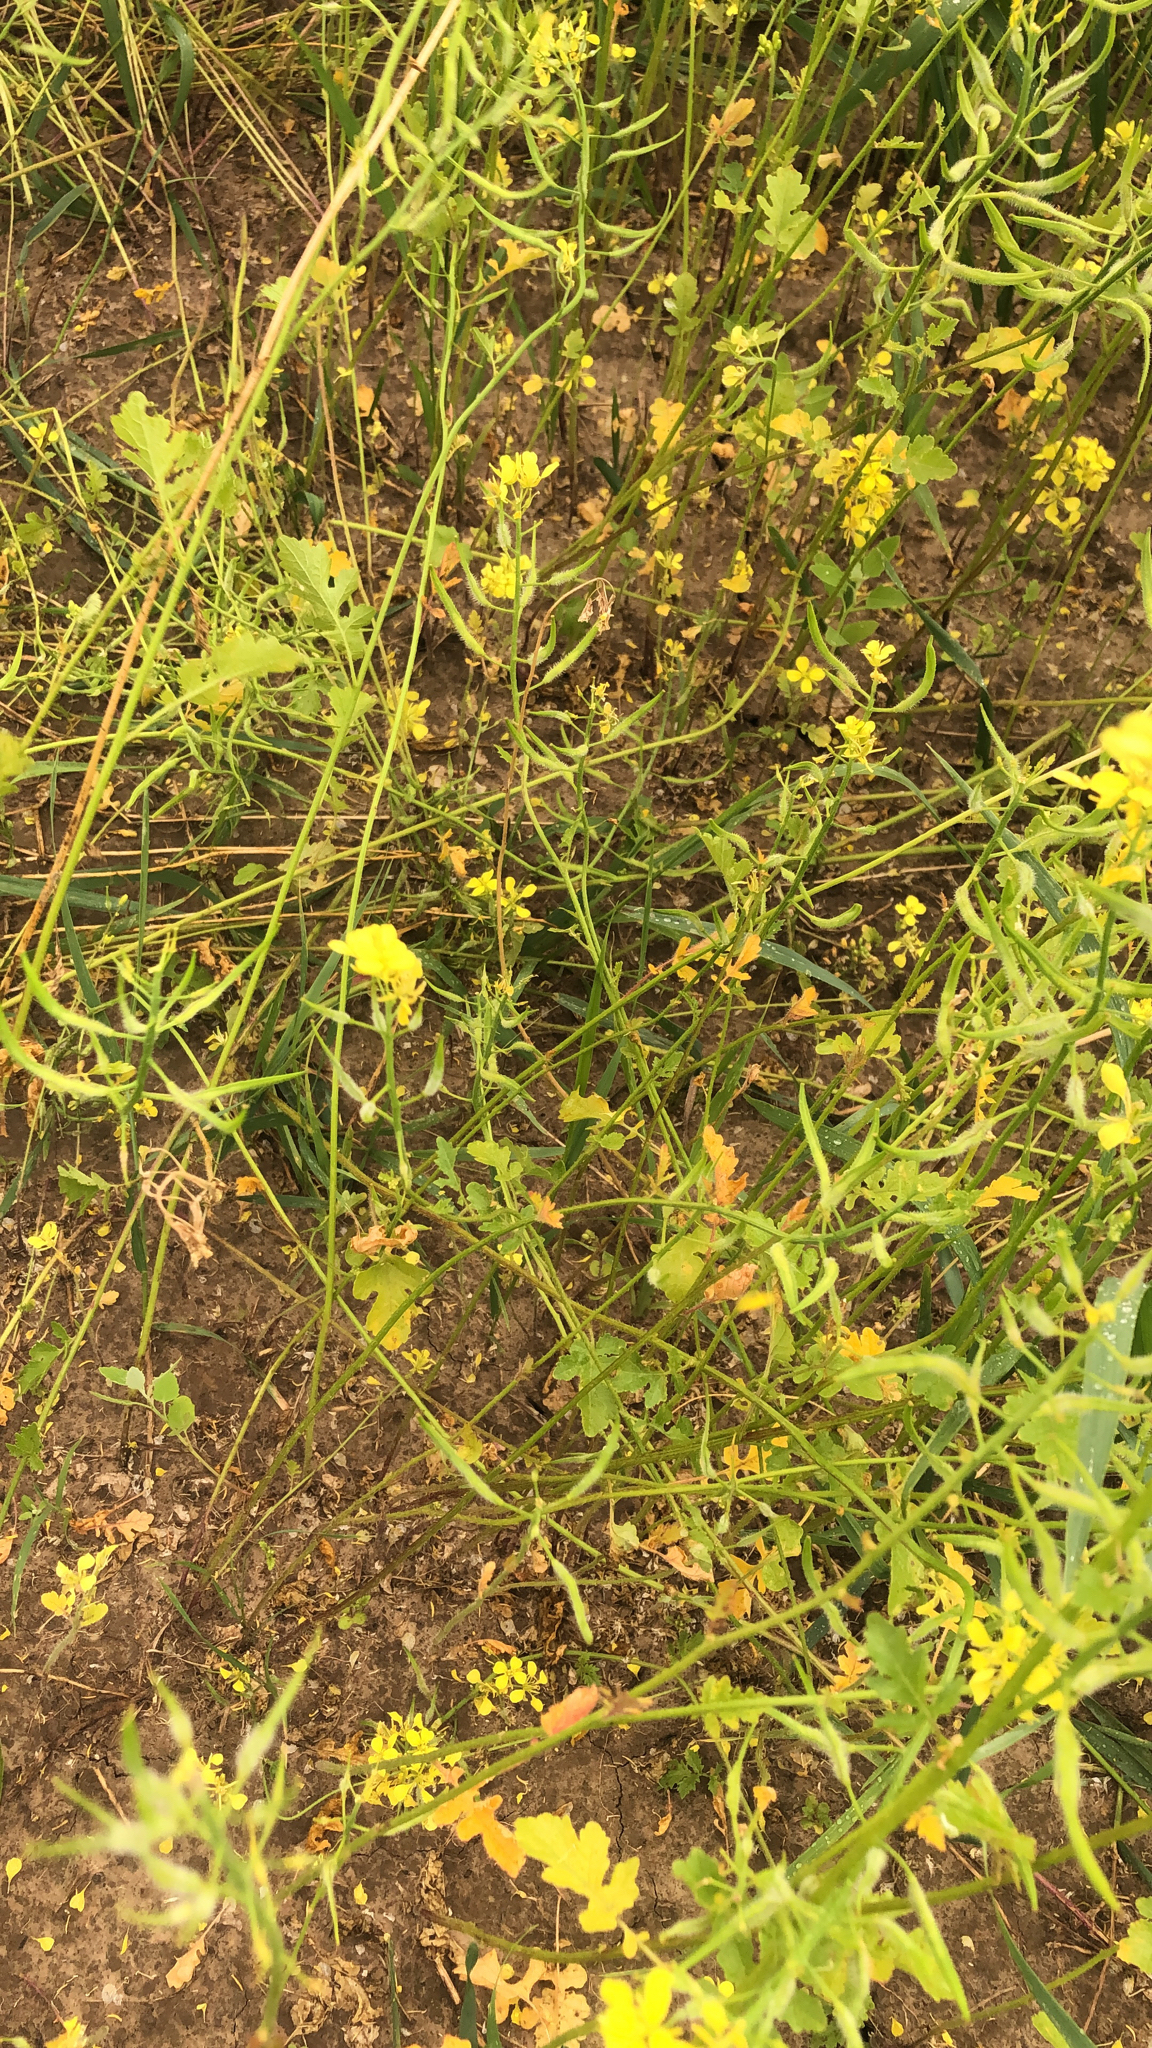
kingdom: Plantae
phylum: Tracheophyta
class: Magnoliopsida
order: Brassicales
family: Brassicaceae
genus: Sinapis
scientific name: Sinapis alba
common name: White mustard
